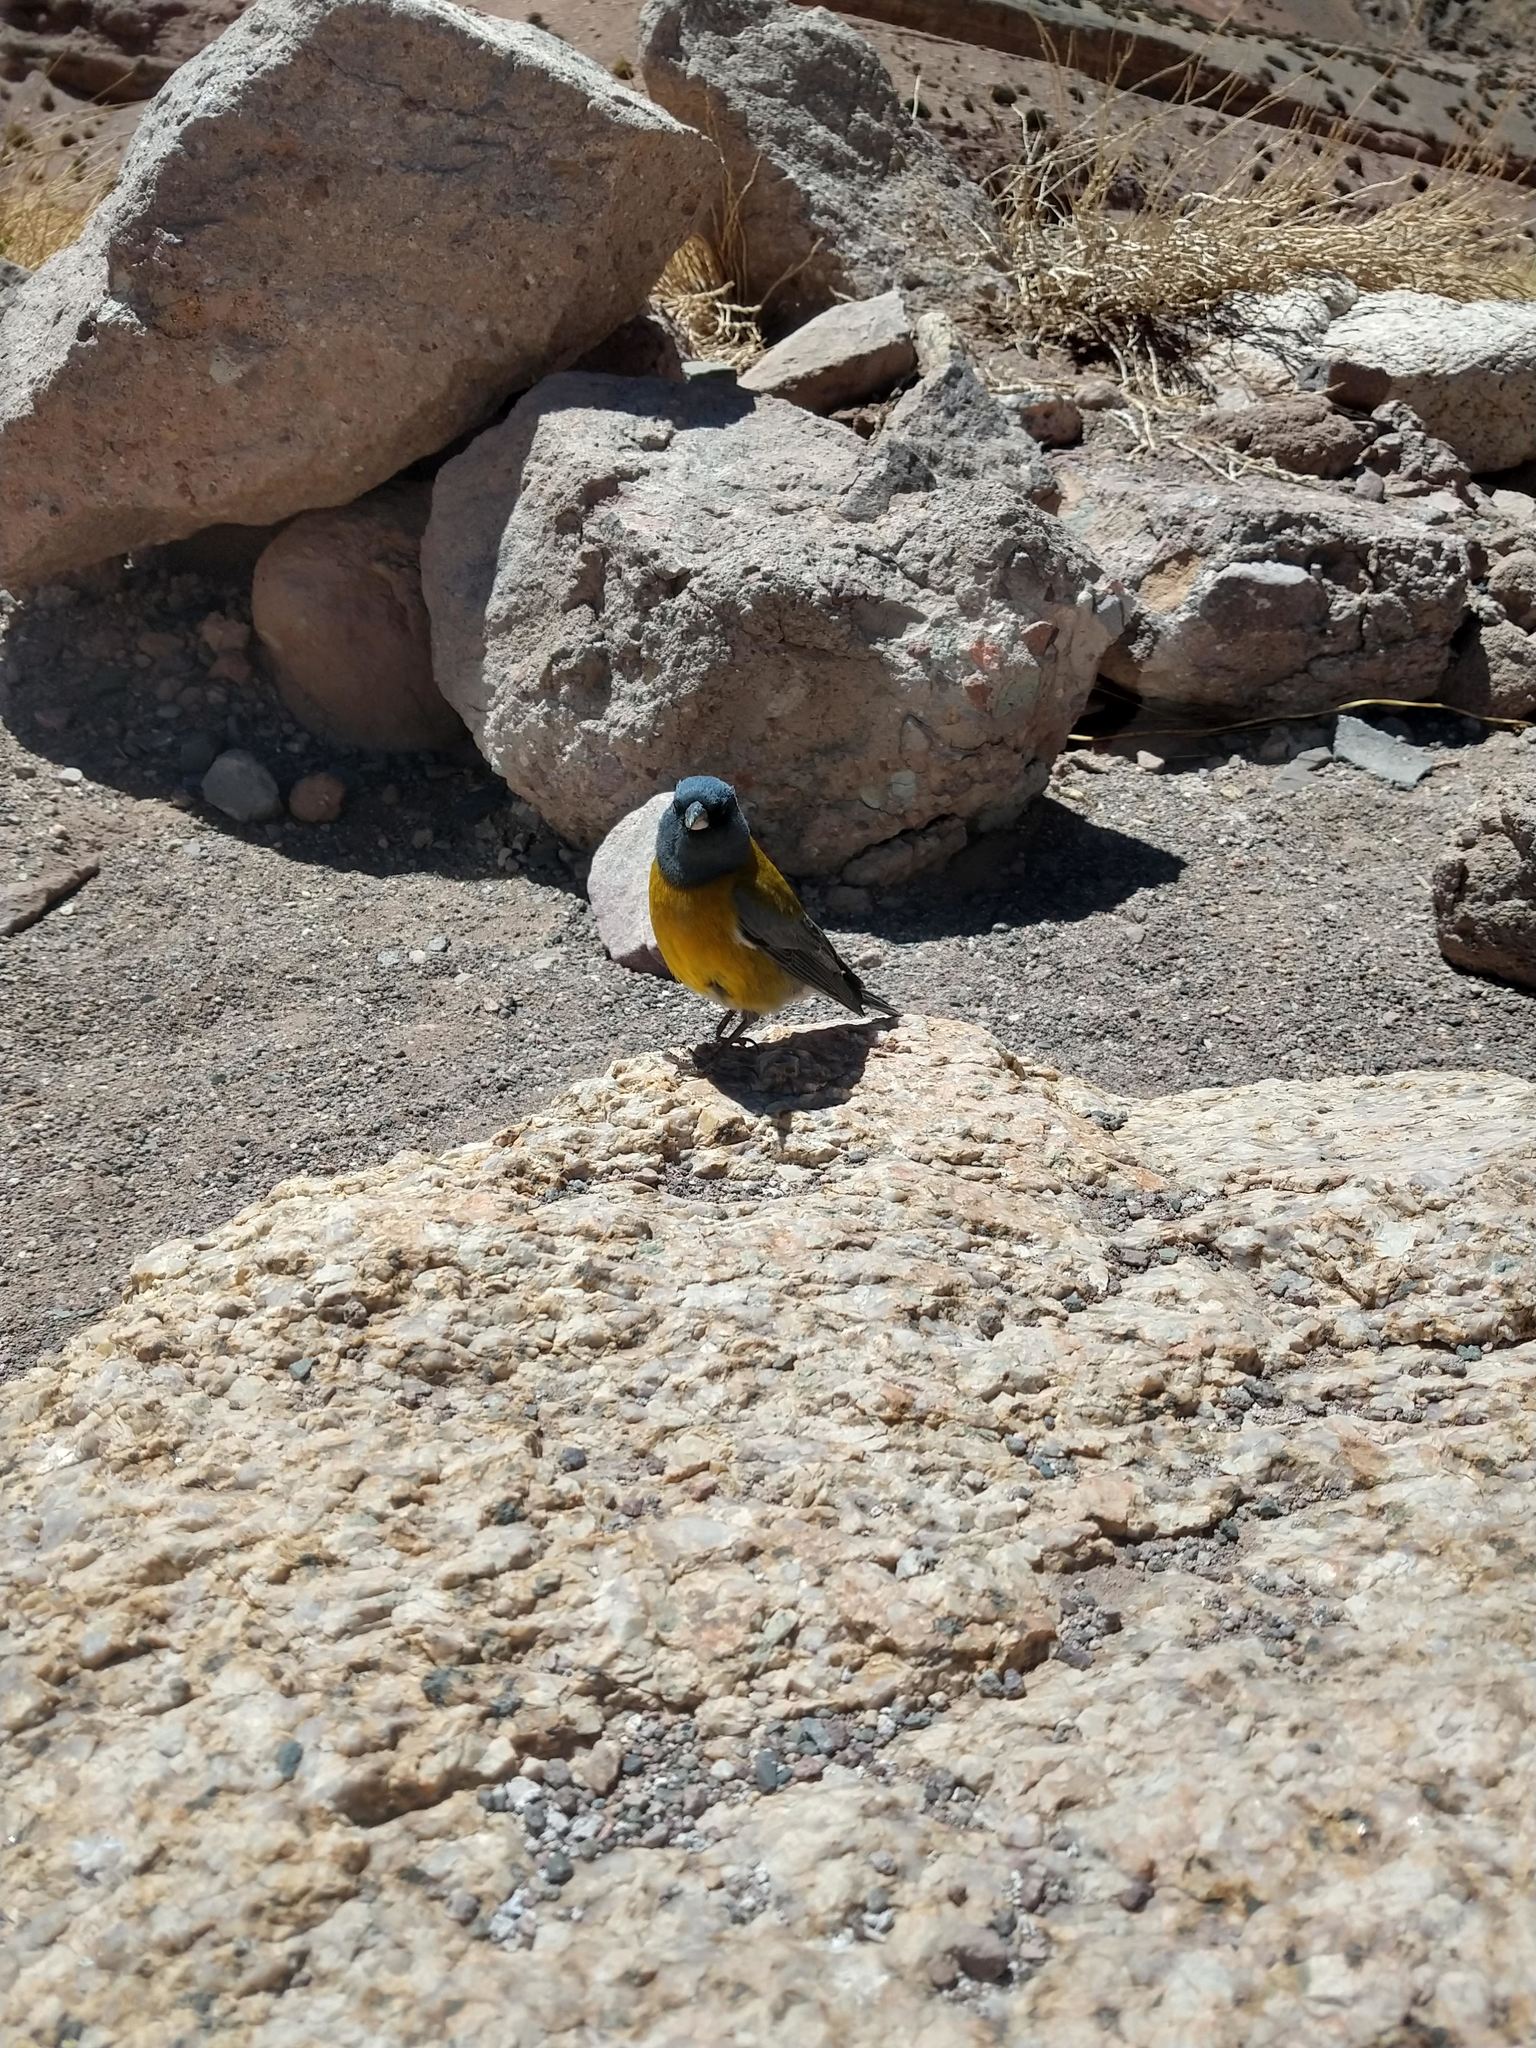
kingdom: Animalia
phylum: Chordata
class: Aves
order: Passeriformes
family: Thraupidae
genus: Phrygilus
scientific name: Phrygilus gayi
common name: Grey-hooded sierra finch
